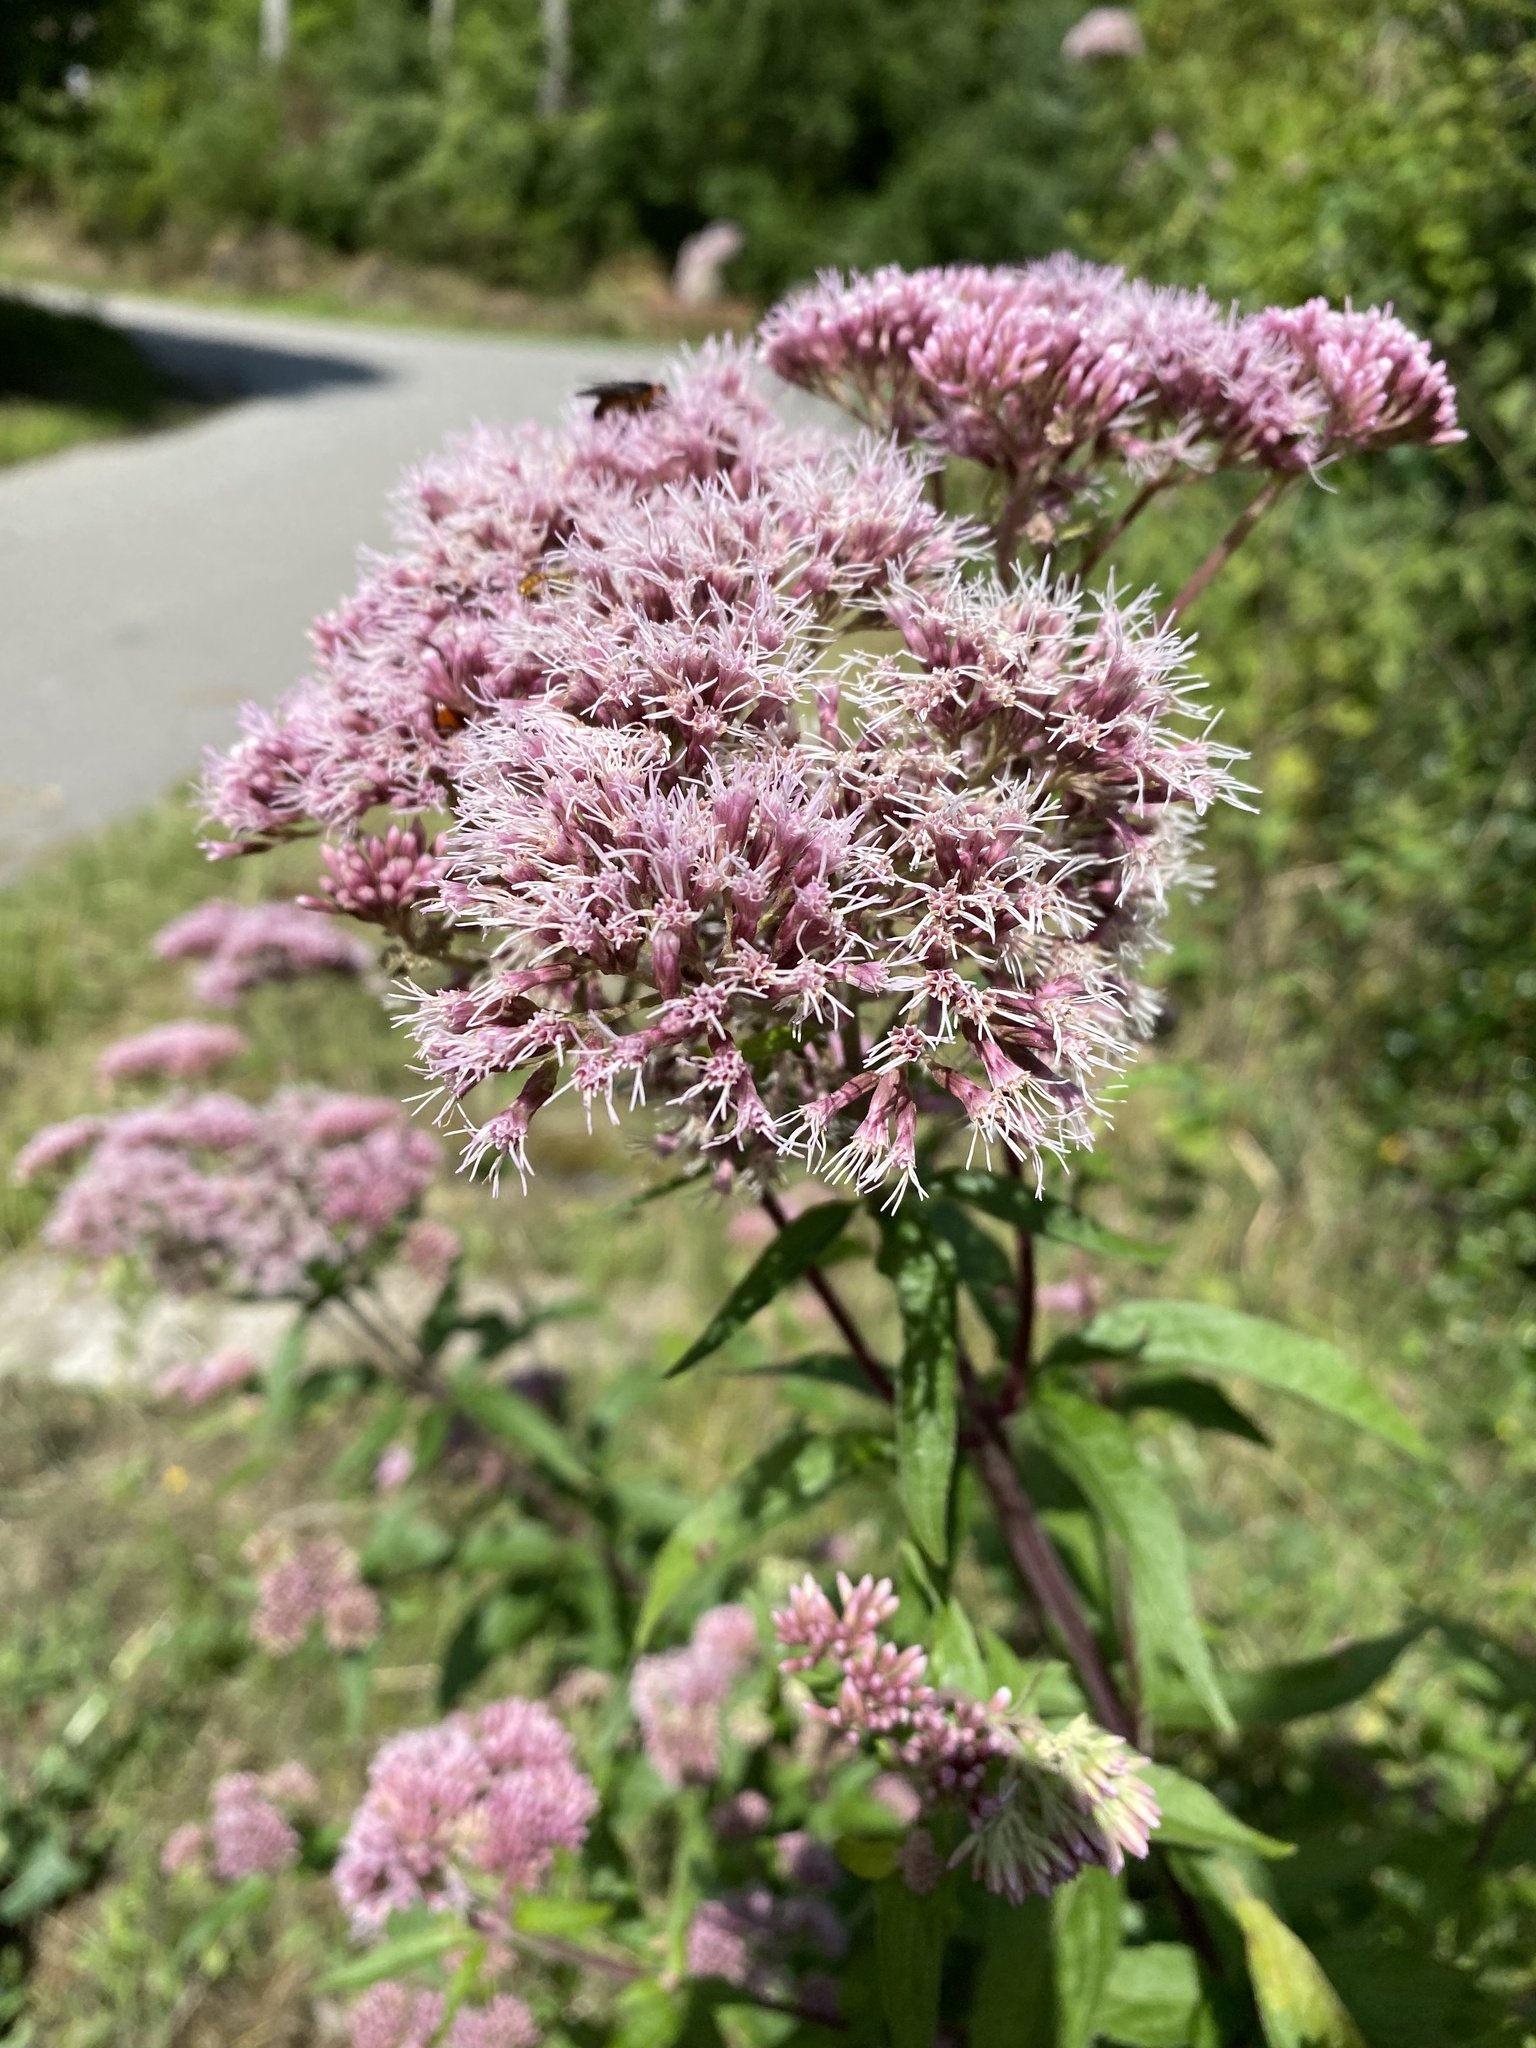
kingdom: Plantae
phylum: Tracheophyta
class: Magnoliopsida
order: Asterales
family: Asteraceae
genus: Eupatorium
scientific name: Eupatorium cannabinum
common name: Hemp-agrimony
